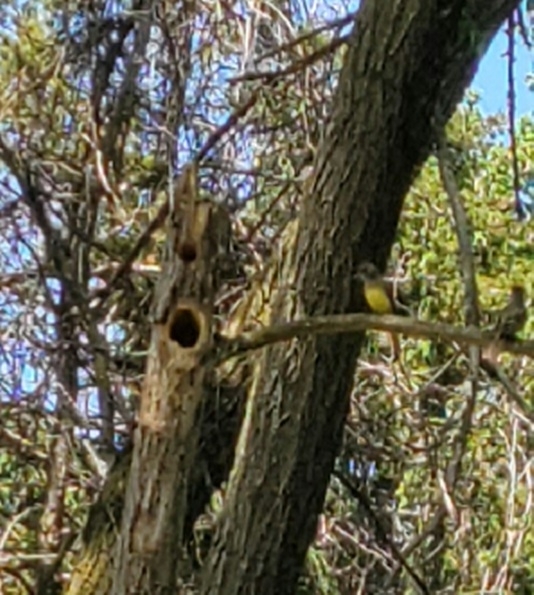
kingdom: Animalia
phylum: Chordata
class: Aves
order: Passeriformes
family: Tyrannidae
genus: Myiarchus
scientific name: Myiarchus crinitus
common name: Great crested flycatcher
